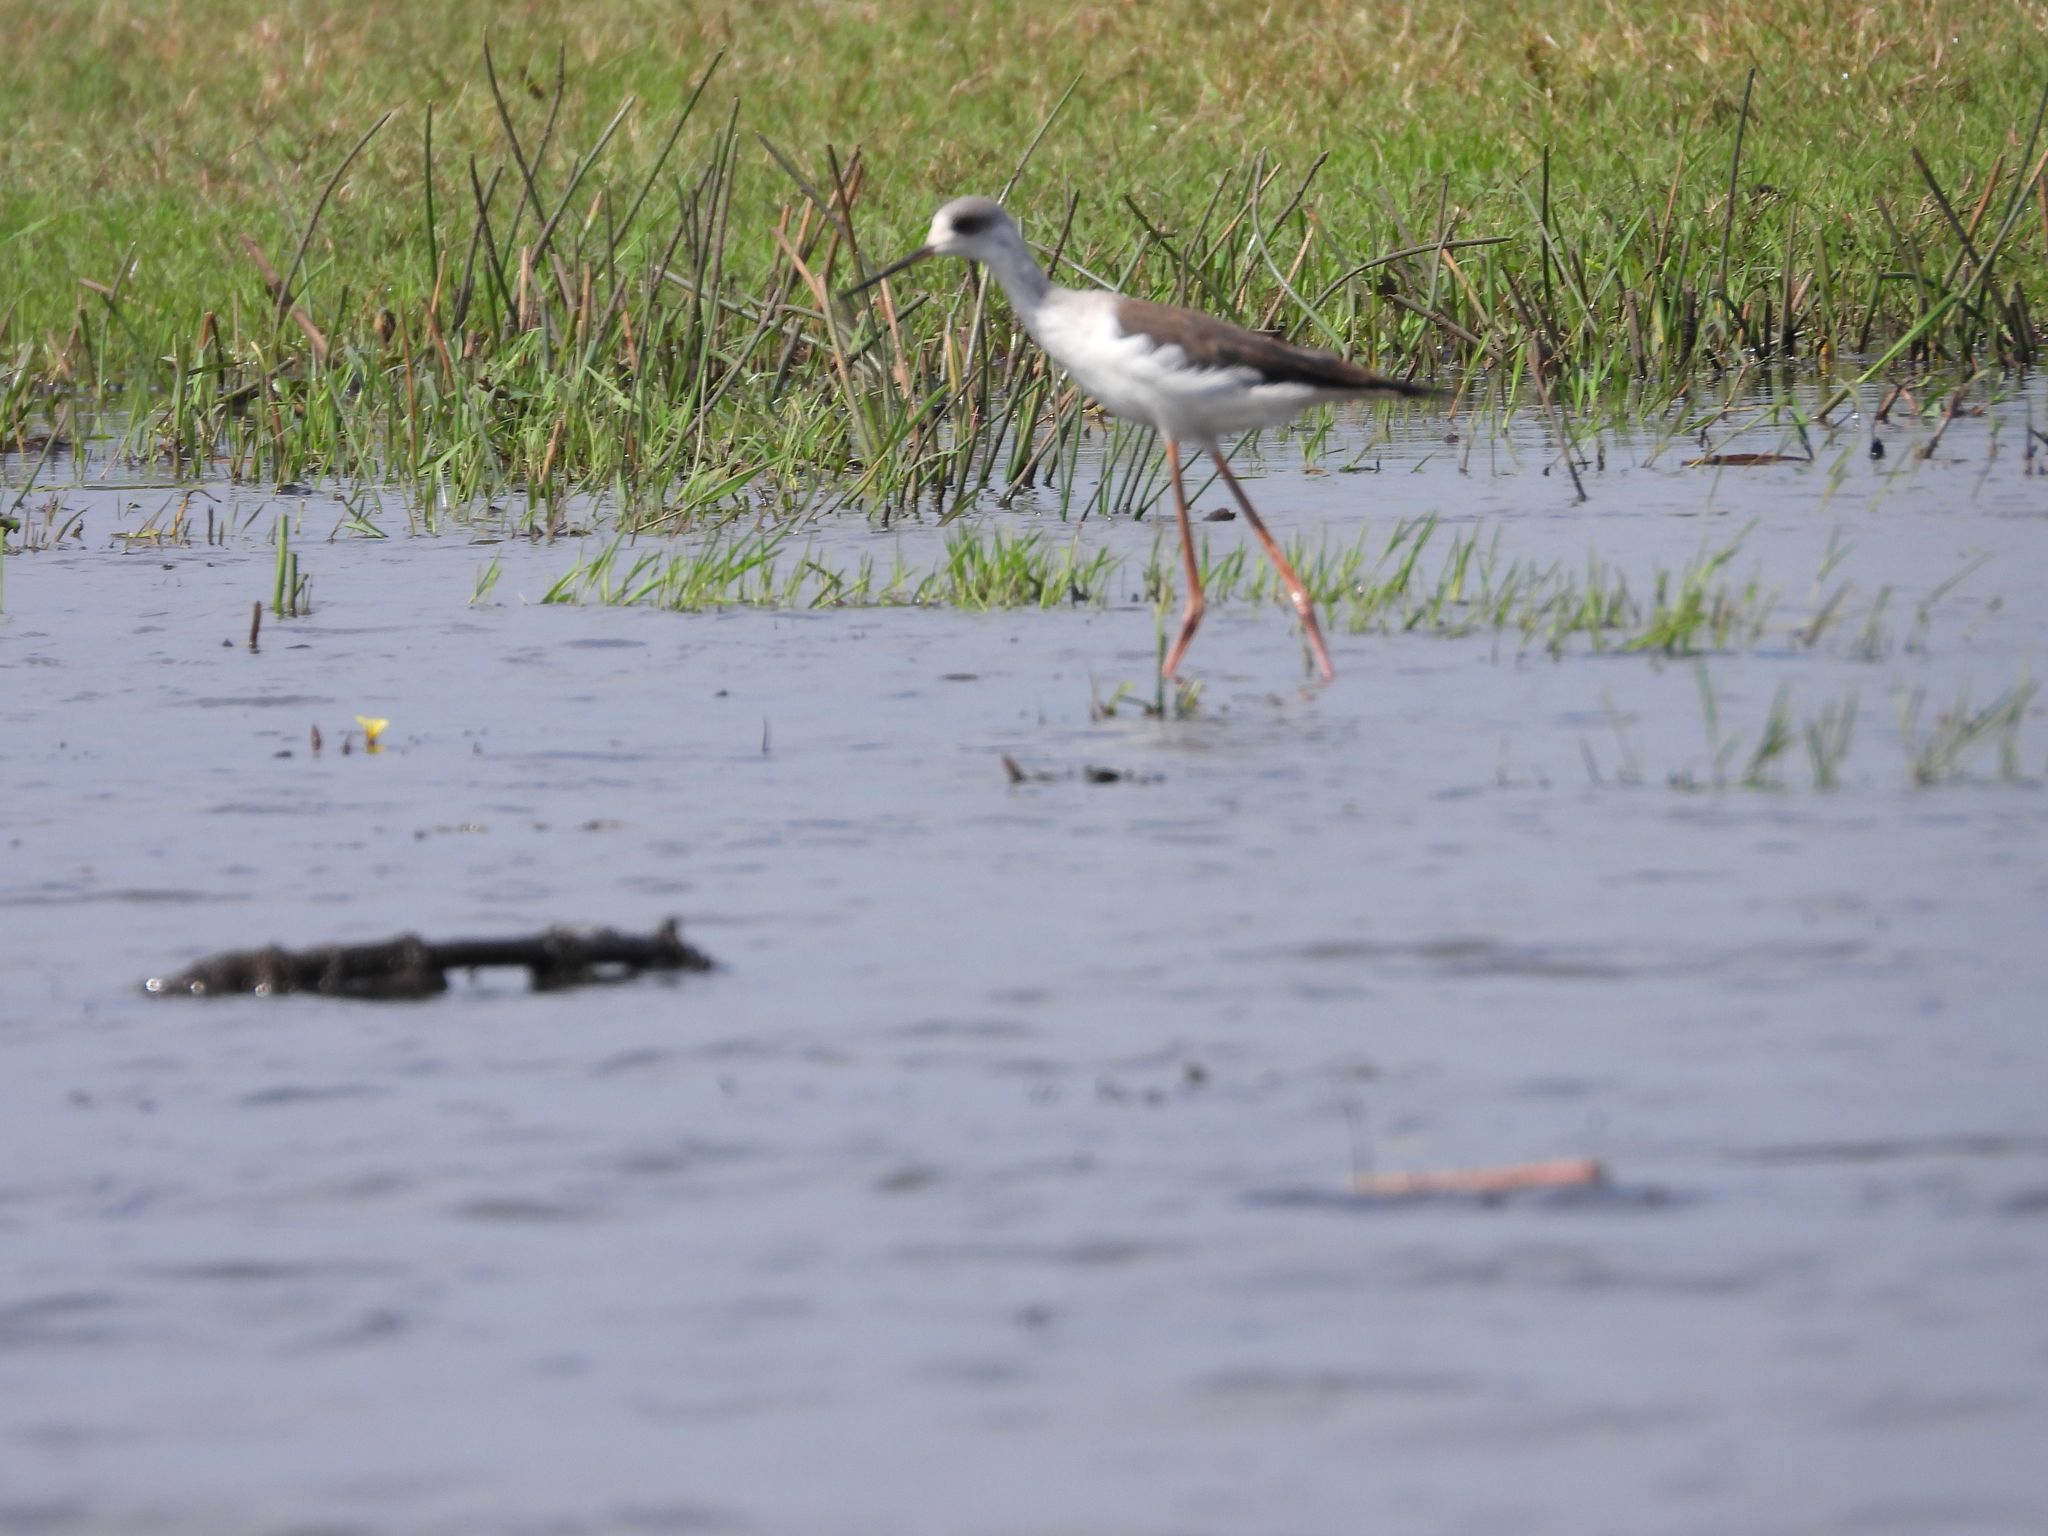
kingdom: Animalia
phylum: Chordata
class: Aves
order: Charadriiformes
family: Recurvirostridae
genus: Himantopus
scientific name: Himantopus himantopus
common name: Black-winged stilt
